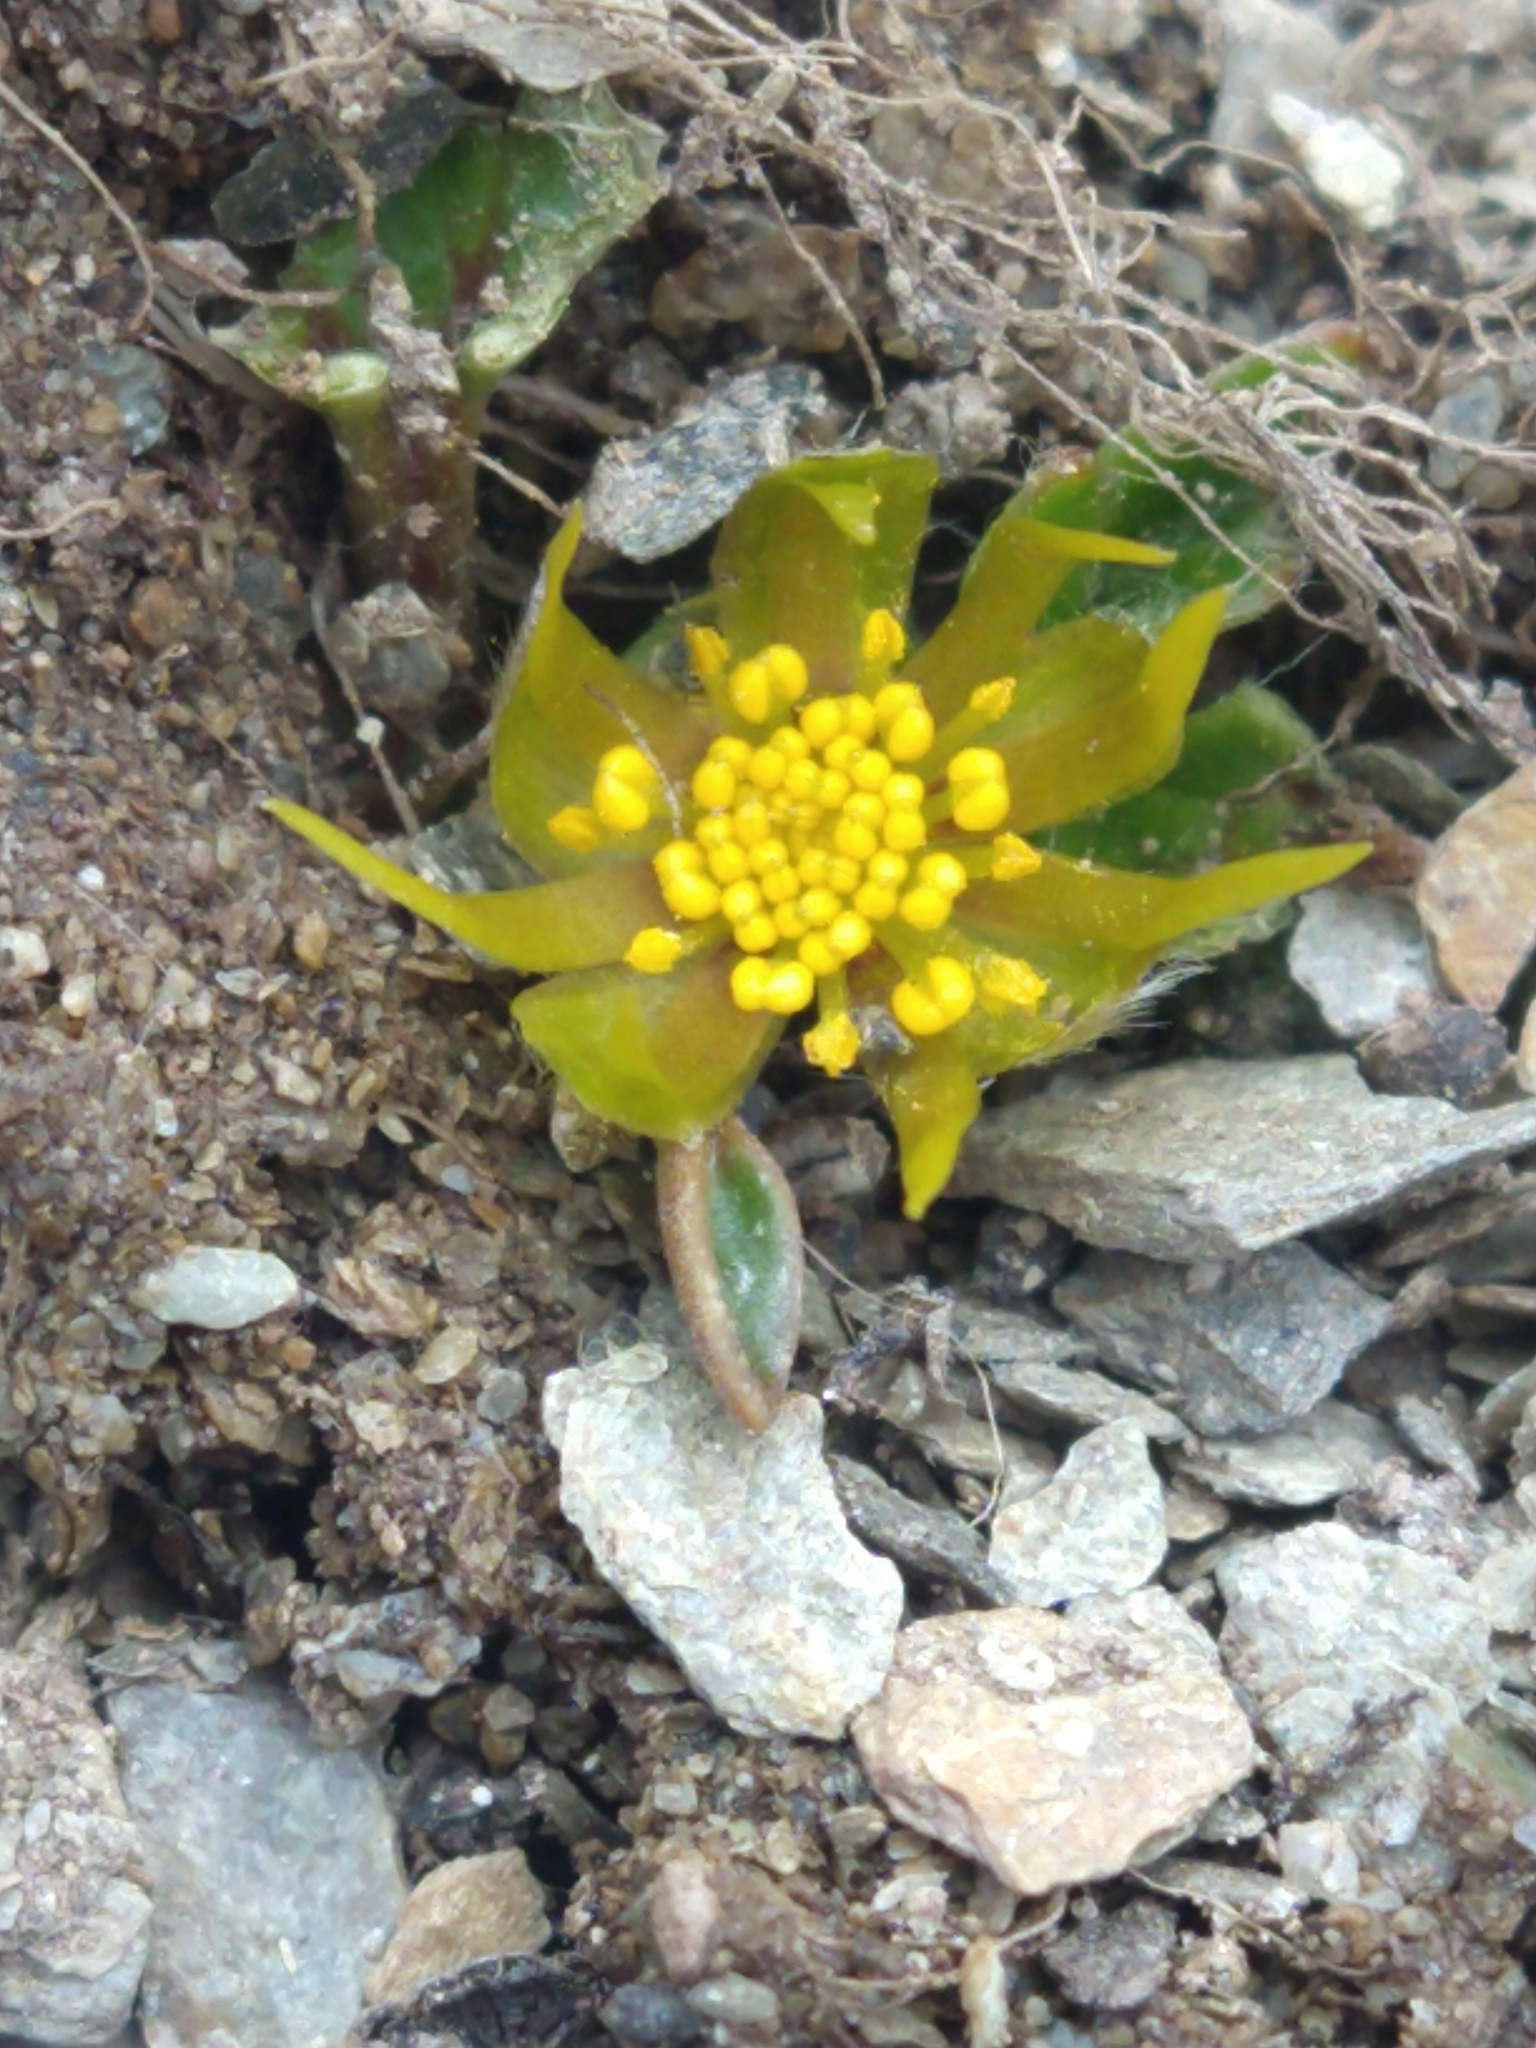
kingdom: Plantae
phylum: Tracheophyta
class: Magnoliopsida
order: Ranunculales
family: Ranunculaceae
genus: Hamadryas
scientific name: Hamadryas magellanica
